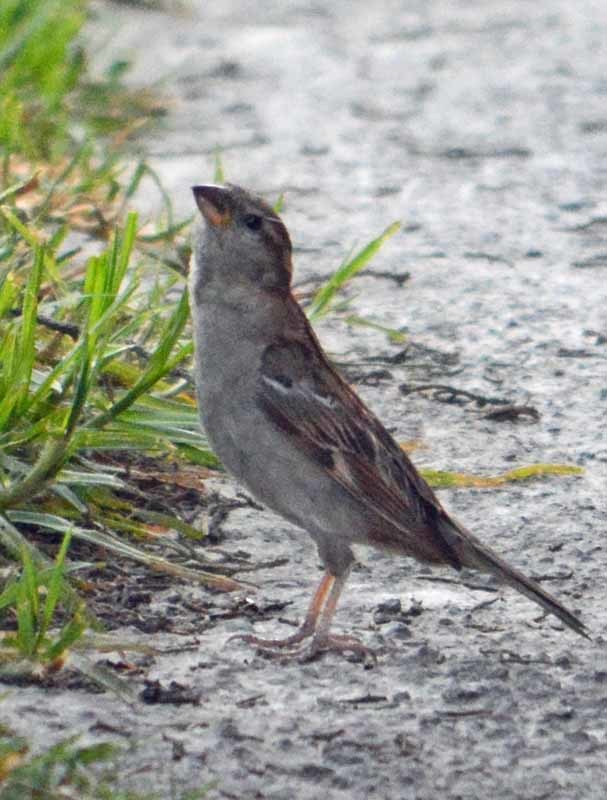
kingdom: Animalia
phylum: Chordata
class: Aves
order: Passeriformes
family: Passeridae
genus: Passer
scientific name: Passer domesticus
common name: House sparrow
